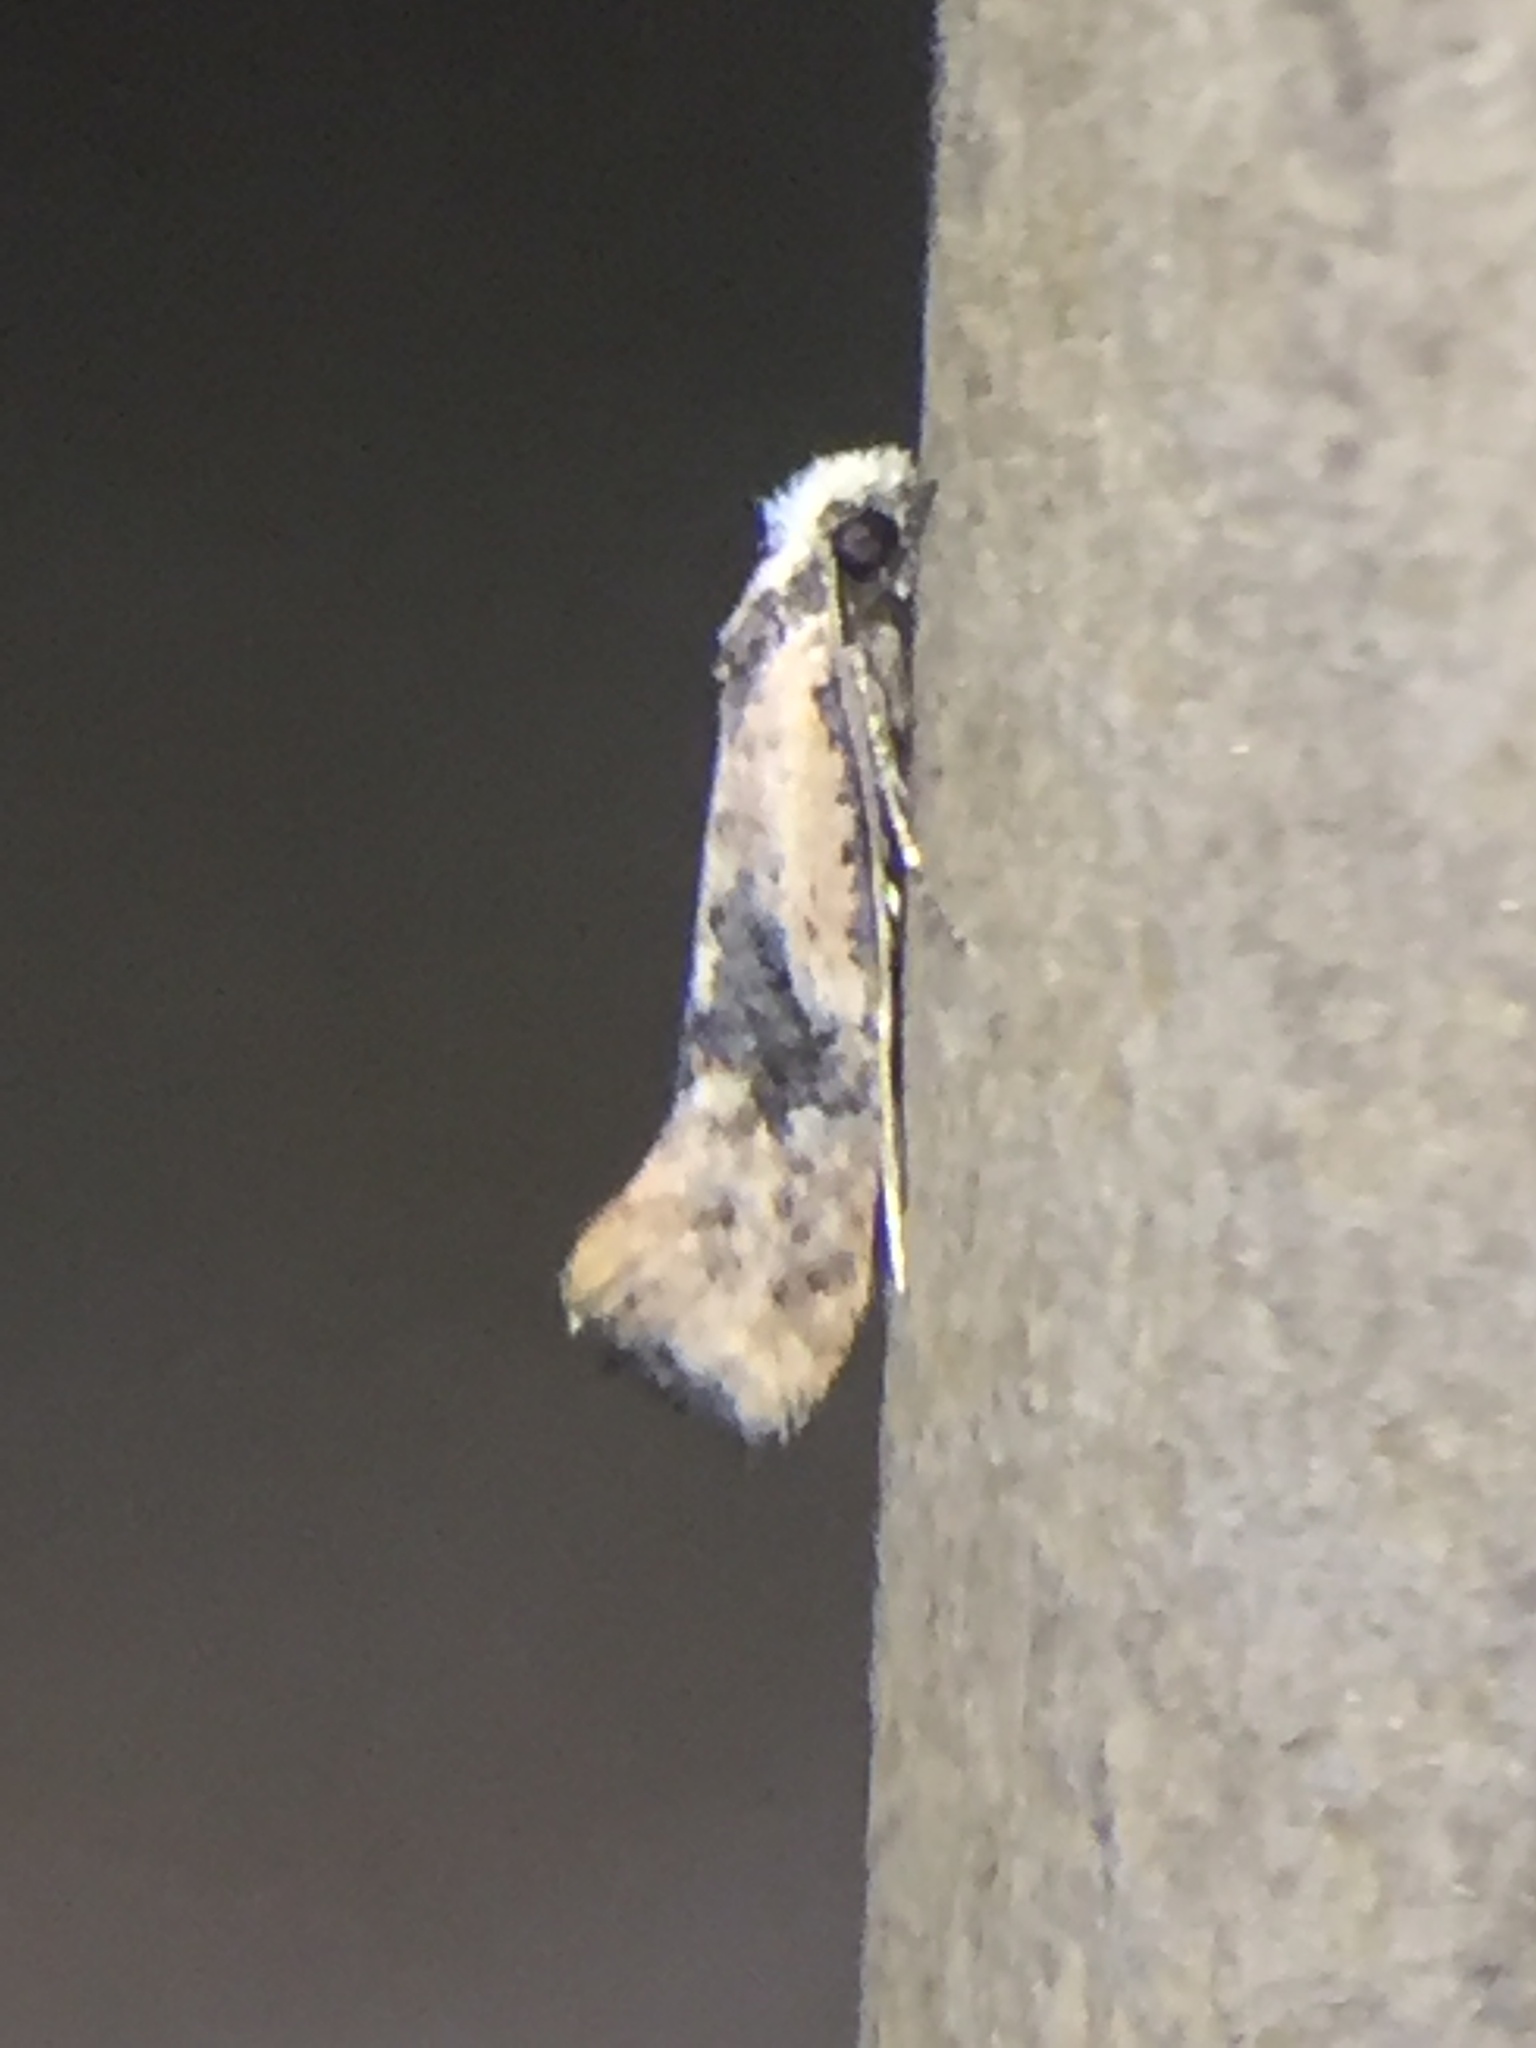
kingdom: Animalia
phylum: Arthropoda
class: Insecta
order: Lepidoptera
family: Tineidae
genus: Monopis
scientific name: Monopis argillacea
